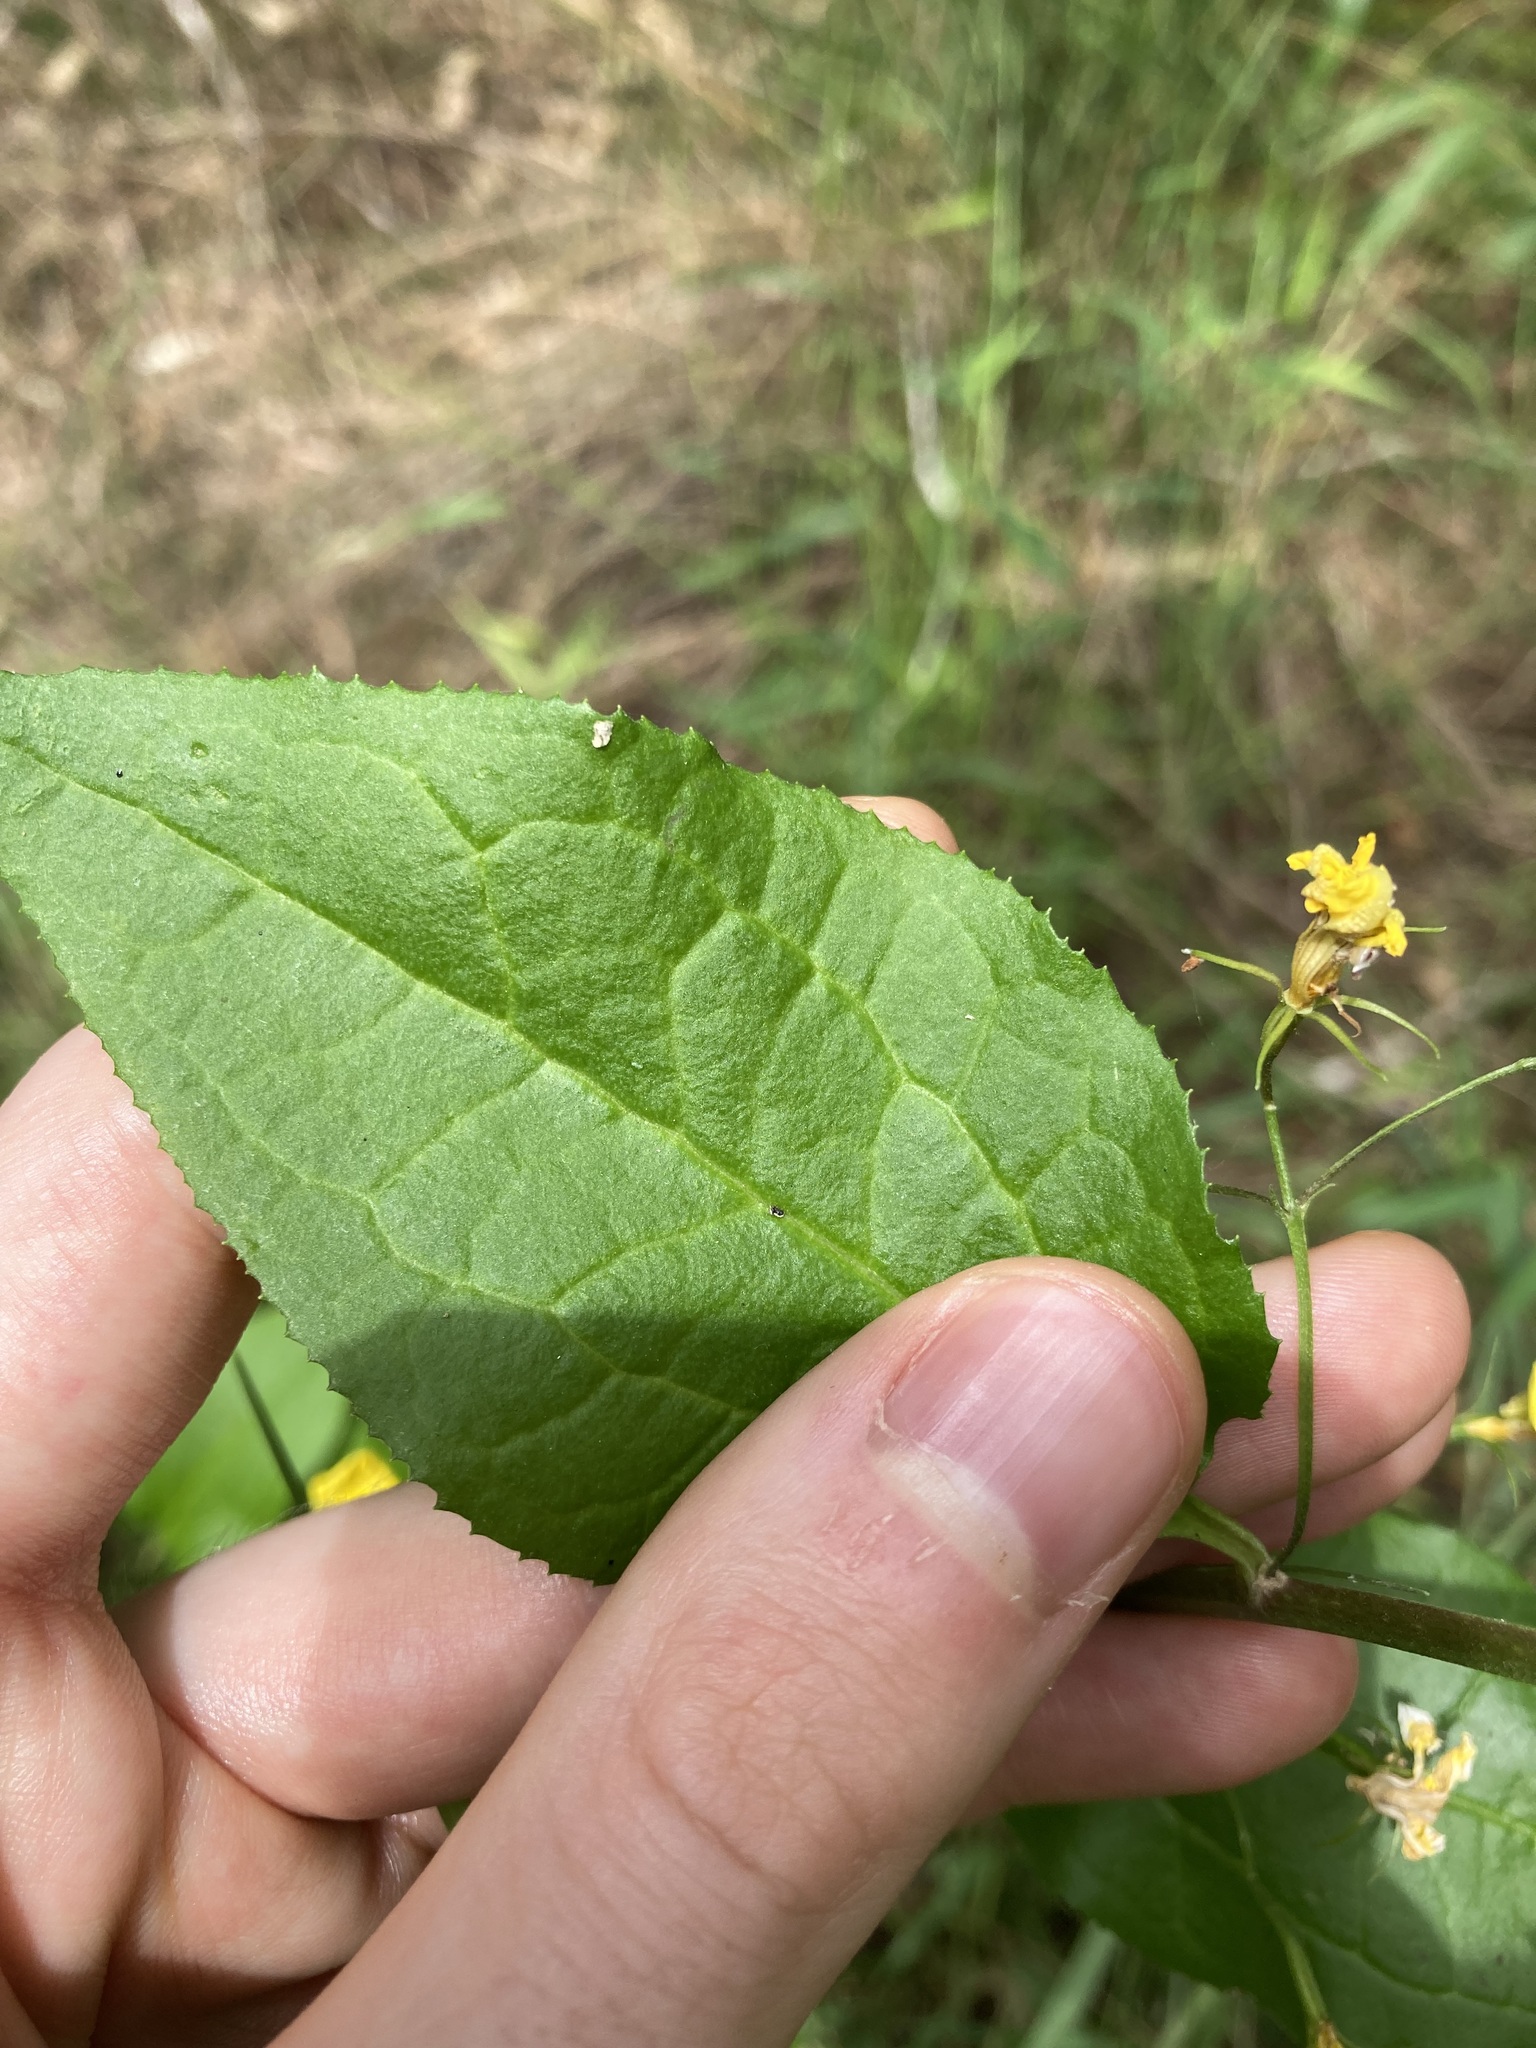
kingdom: Plantae
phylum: Tracheophyta
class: Magnoliopsida
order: Asterales
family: Goodeniaceae
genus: Goodenia
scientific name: Goodenia ovata
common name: Hop goodenia
